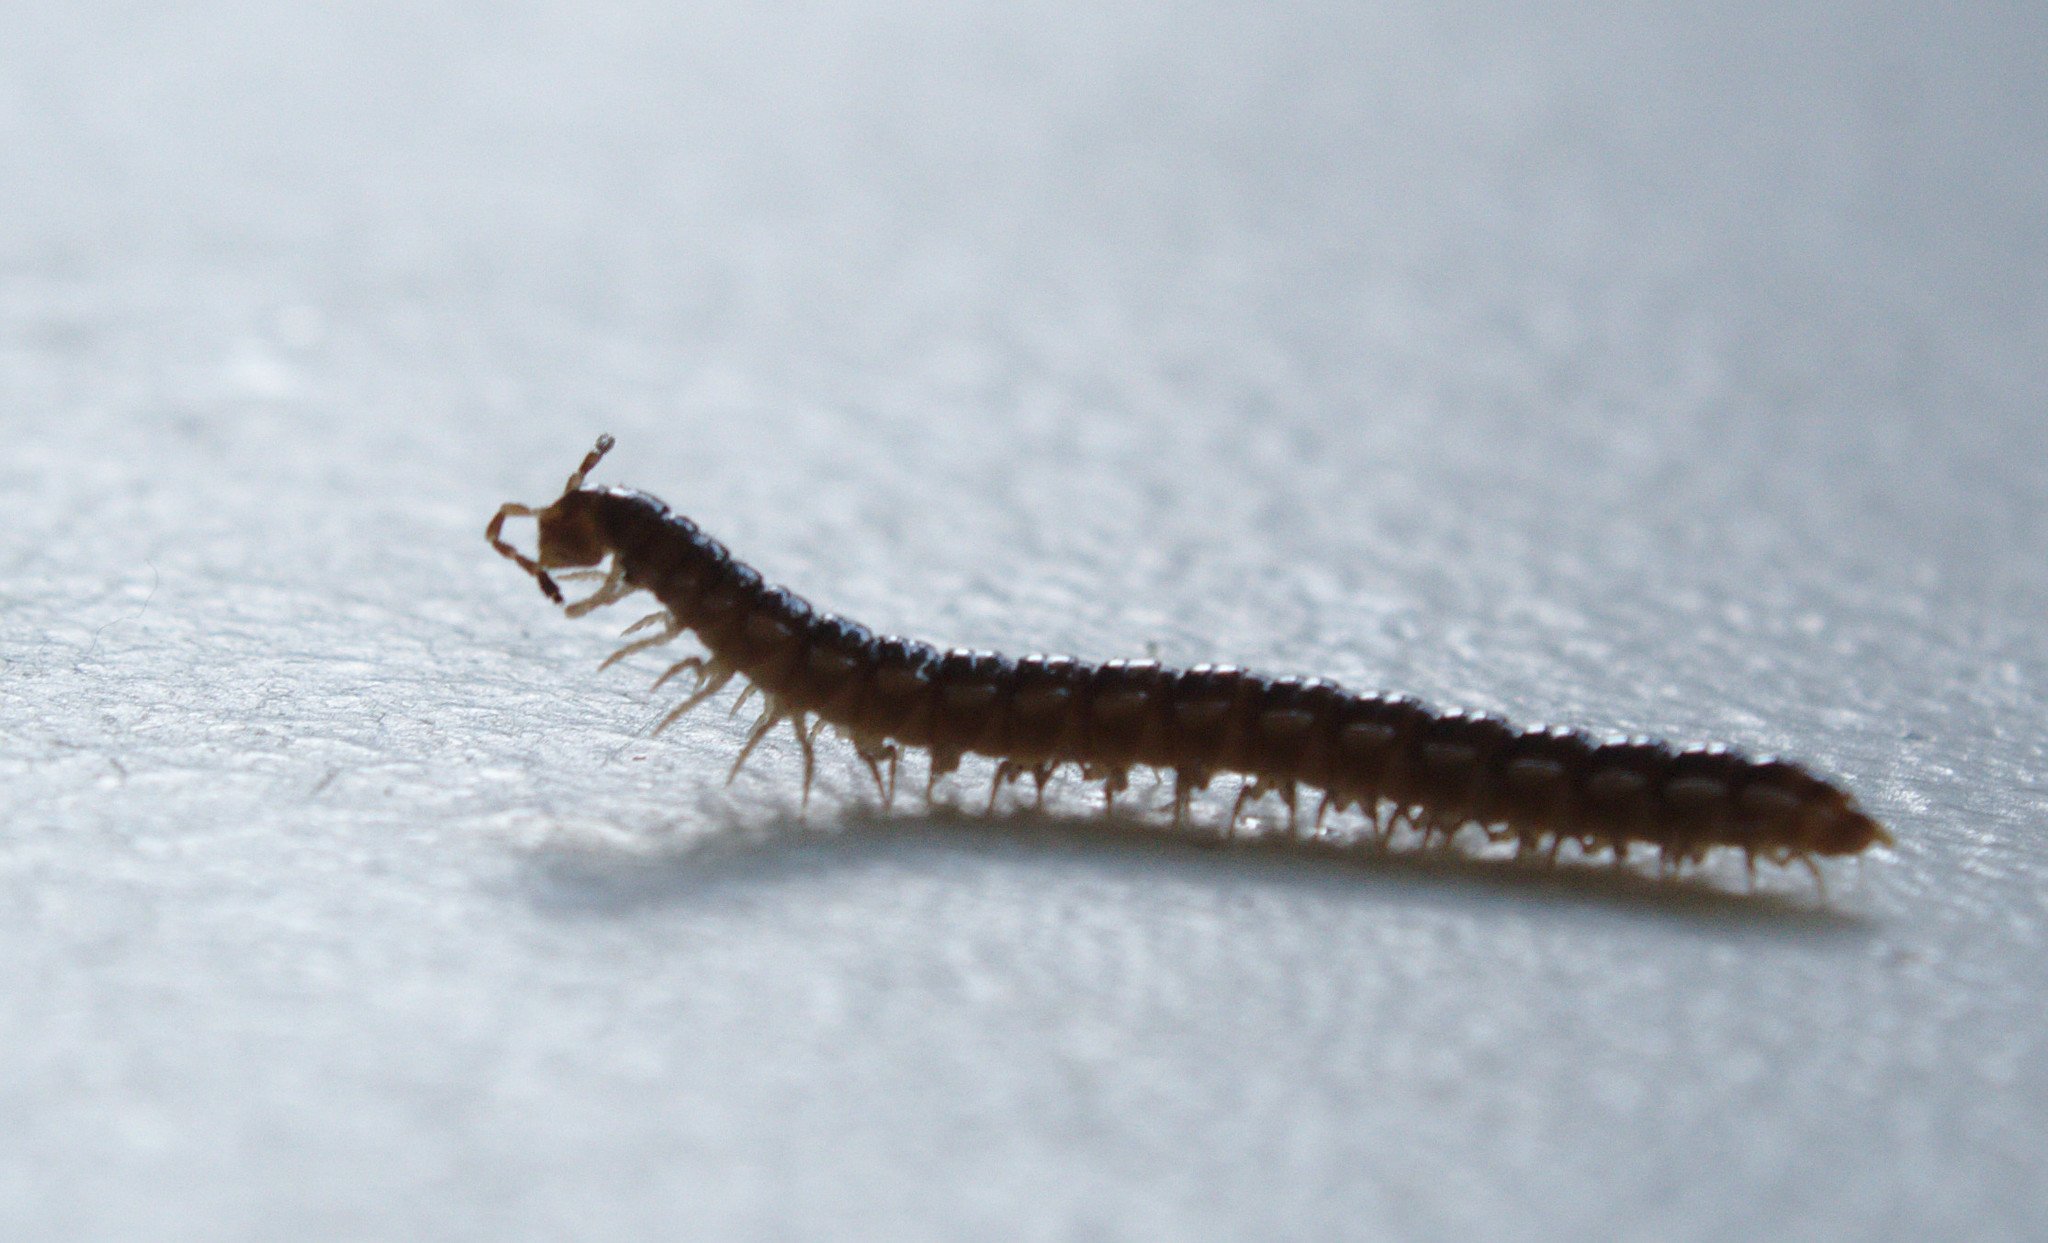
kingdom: Animalia
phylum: Arthropoda
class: Diplopoda
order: Polydesmida
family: Paradoxosomatidae
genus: Oxidus
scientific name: Oxidus gracilis
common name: Greenhouse millipede
